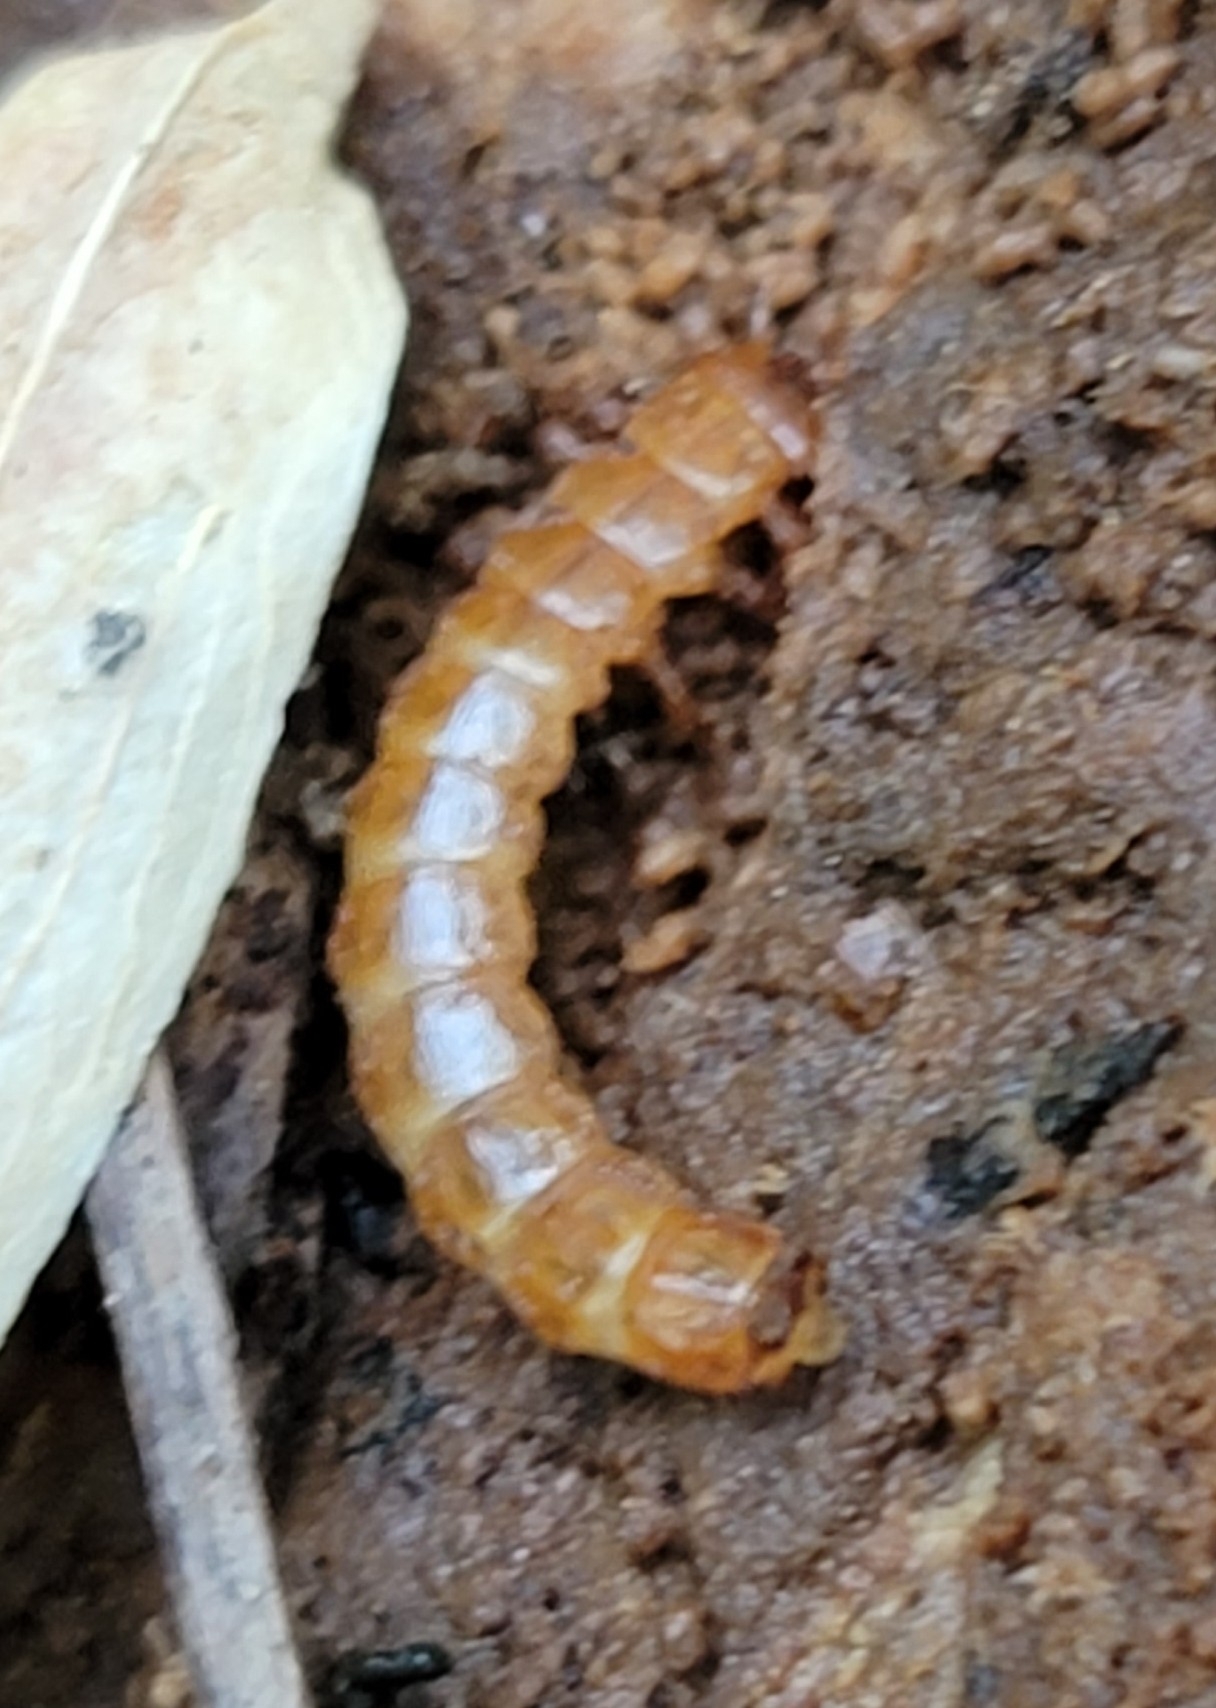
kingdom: Animalia
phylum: Arthropoda
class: Insecta
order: Coleoptera
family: Cucujidae
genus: Cucujus
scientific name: Cucujus clavipes
